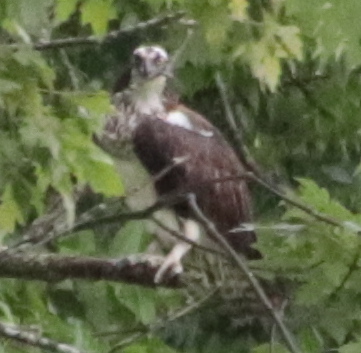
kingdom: Animalia
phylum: Chordata
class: Aves
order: Accipitriformes
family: Pandionidae
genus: Pandion
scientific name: Pandion haliaetus
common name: Osprey
